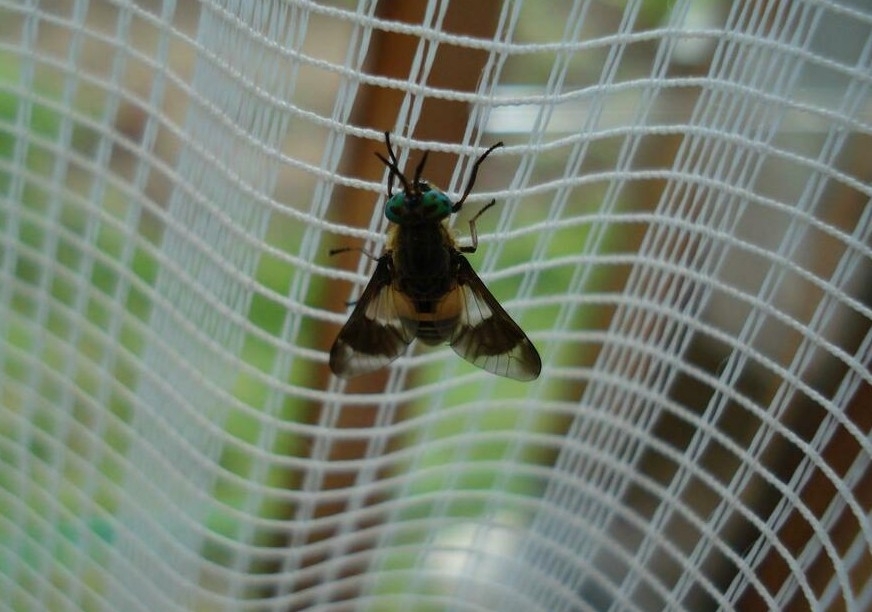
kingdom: Animalia
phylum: Arthropoda
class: Insecta
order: Diptera
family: Tabanidae
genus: Chrysops
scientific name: Chrysops viduatus
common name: Square-spot deerfly
